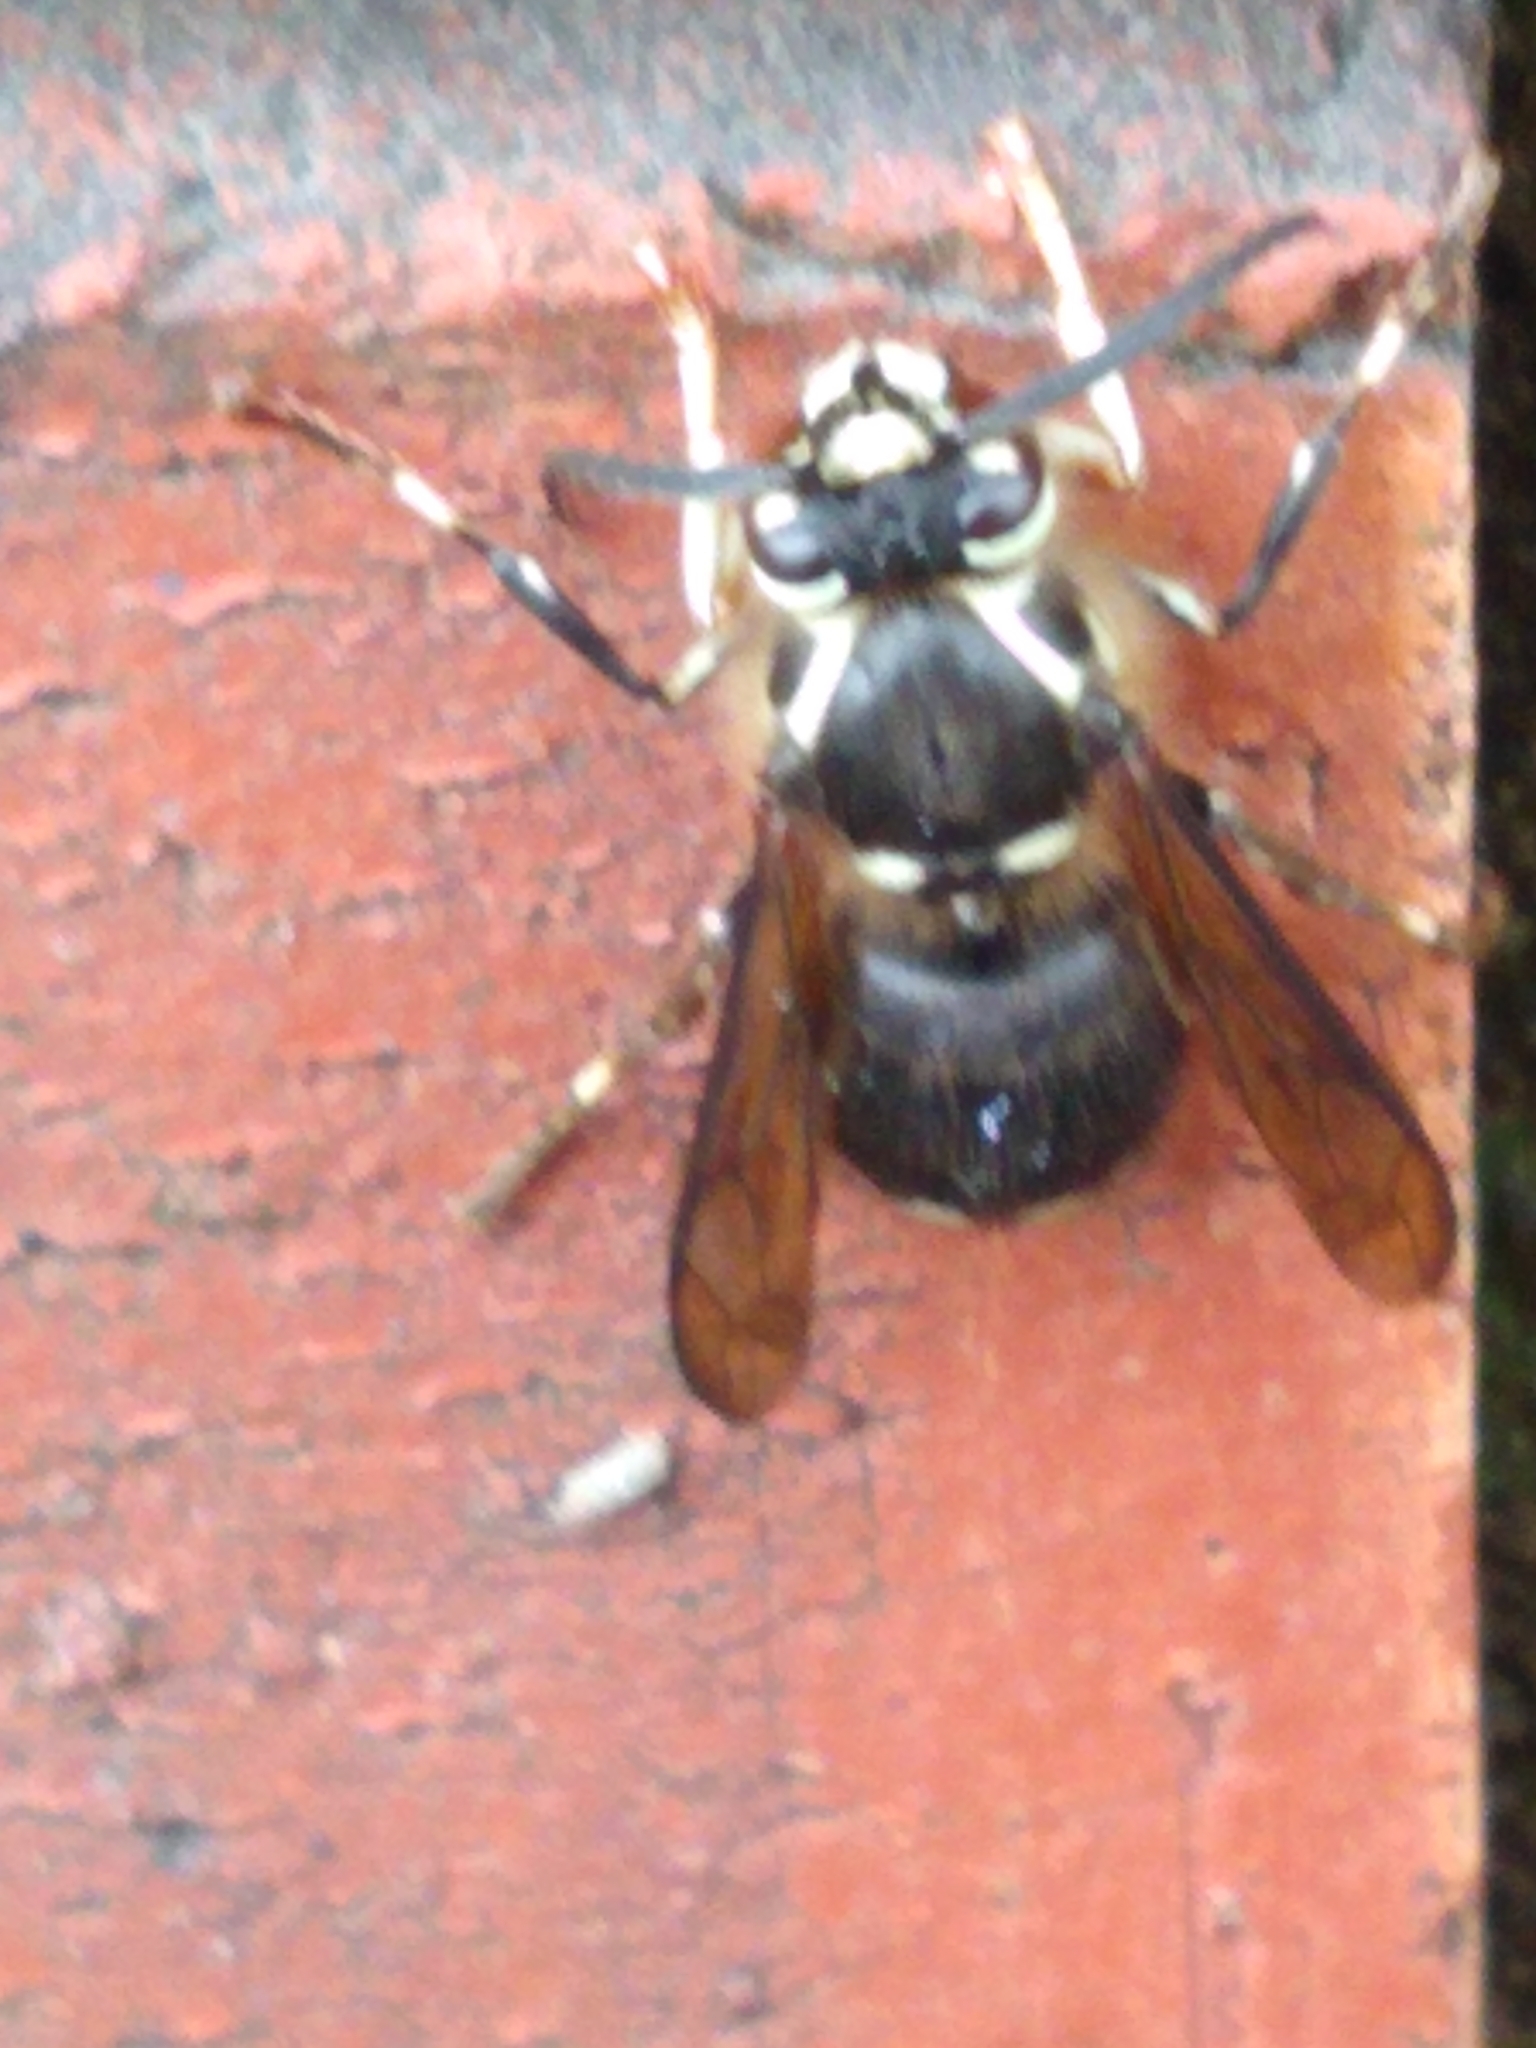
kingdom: Animalia
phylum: Arthropoda
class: Insecta
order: Hymenoptera
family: Vespidae
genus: Dolichovespula
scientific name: Dolichovespula maculata
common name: Bald-faced hornet
